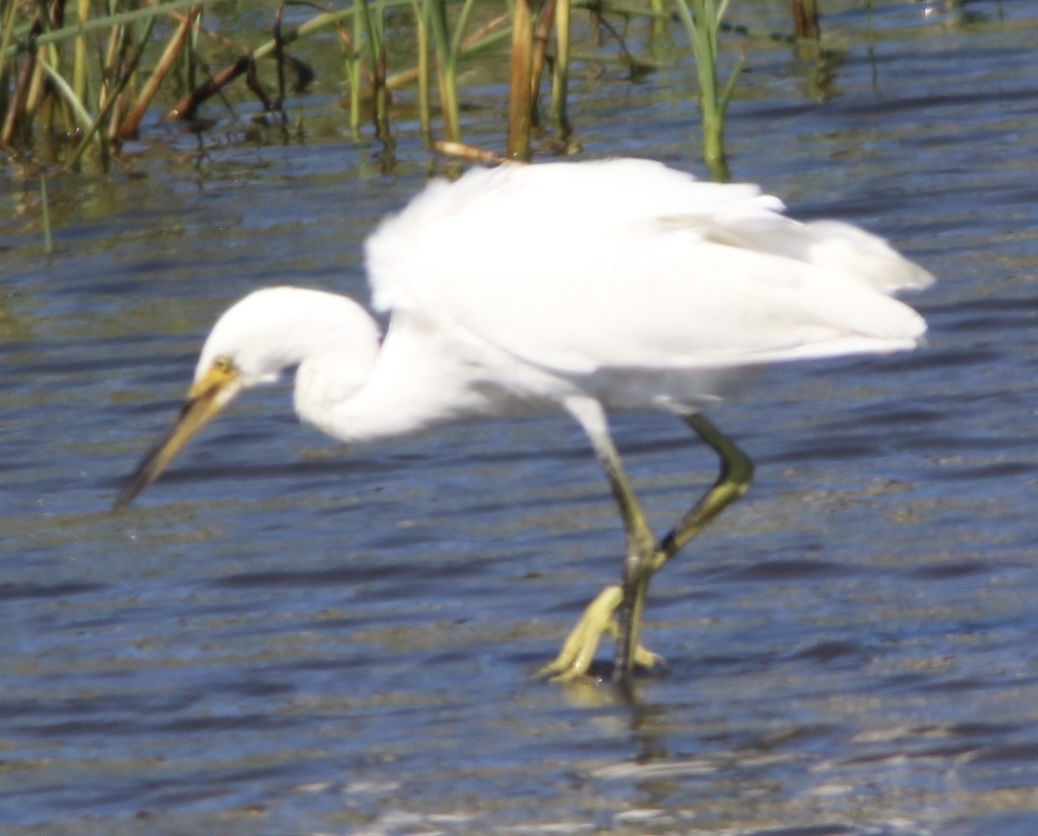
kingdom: Animalia
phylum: Chordata
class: Aves
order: Pelecaniformes
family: Ardeidae
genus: Egretta
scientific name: Egretta thula
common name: Snowy egret
